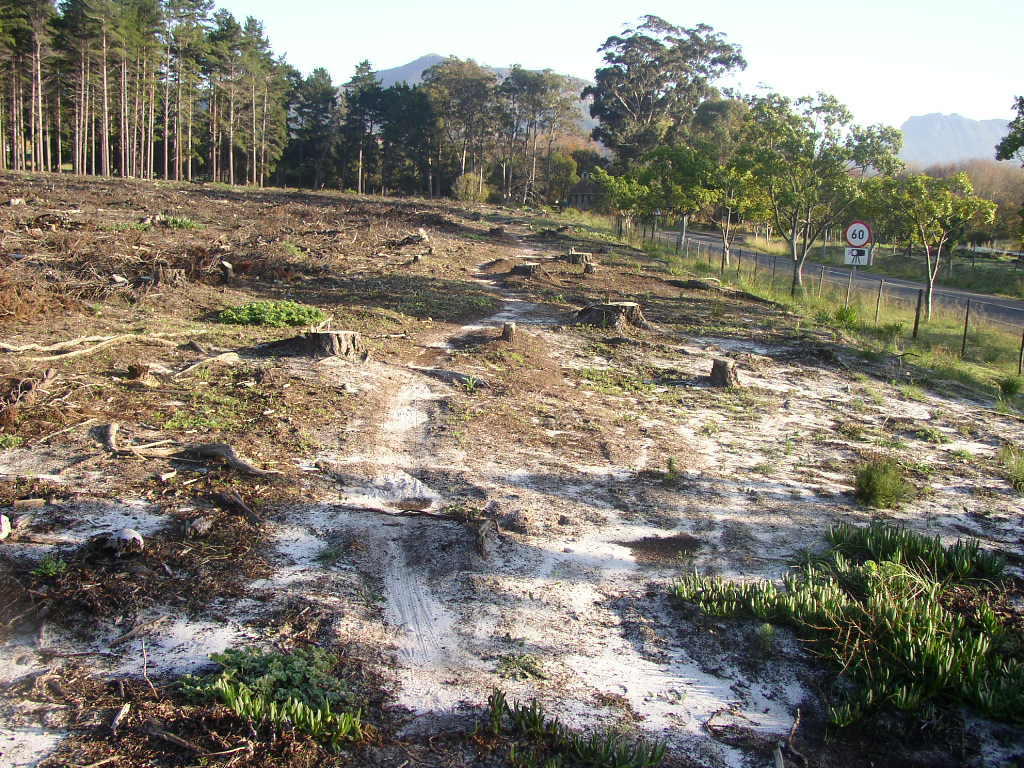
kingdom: Plantae
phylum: Tracheophyta
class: Magnoliopsida
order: Caryophyllales
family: Aizoaceae
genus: Carpobrotus
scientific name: Carpobrotus edulis
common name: Hottentot-fig
